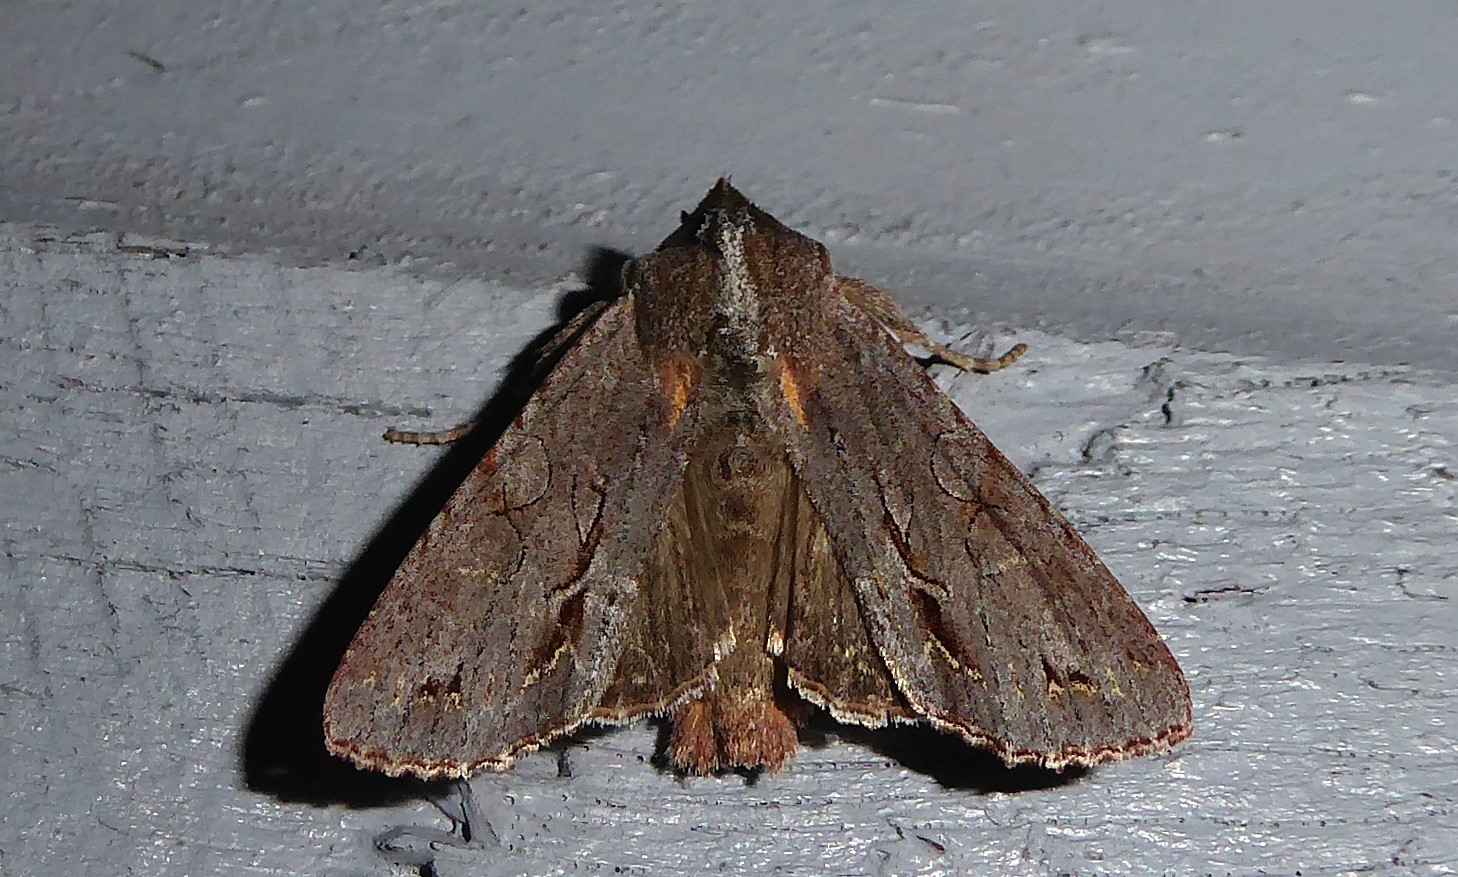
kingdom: Animalia
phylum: Arthropoda
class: Insecta
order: Lepidoptera
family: Noctuidae
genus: Ichneutica
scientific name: Ichneutica
